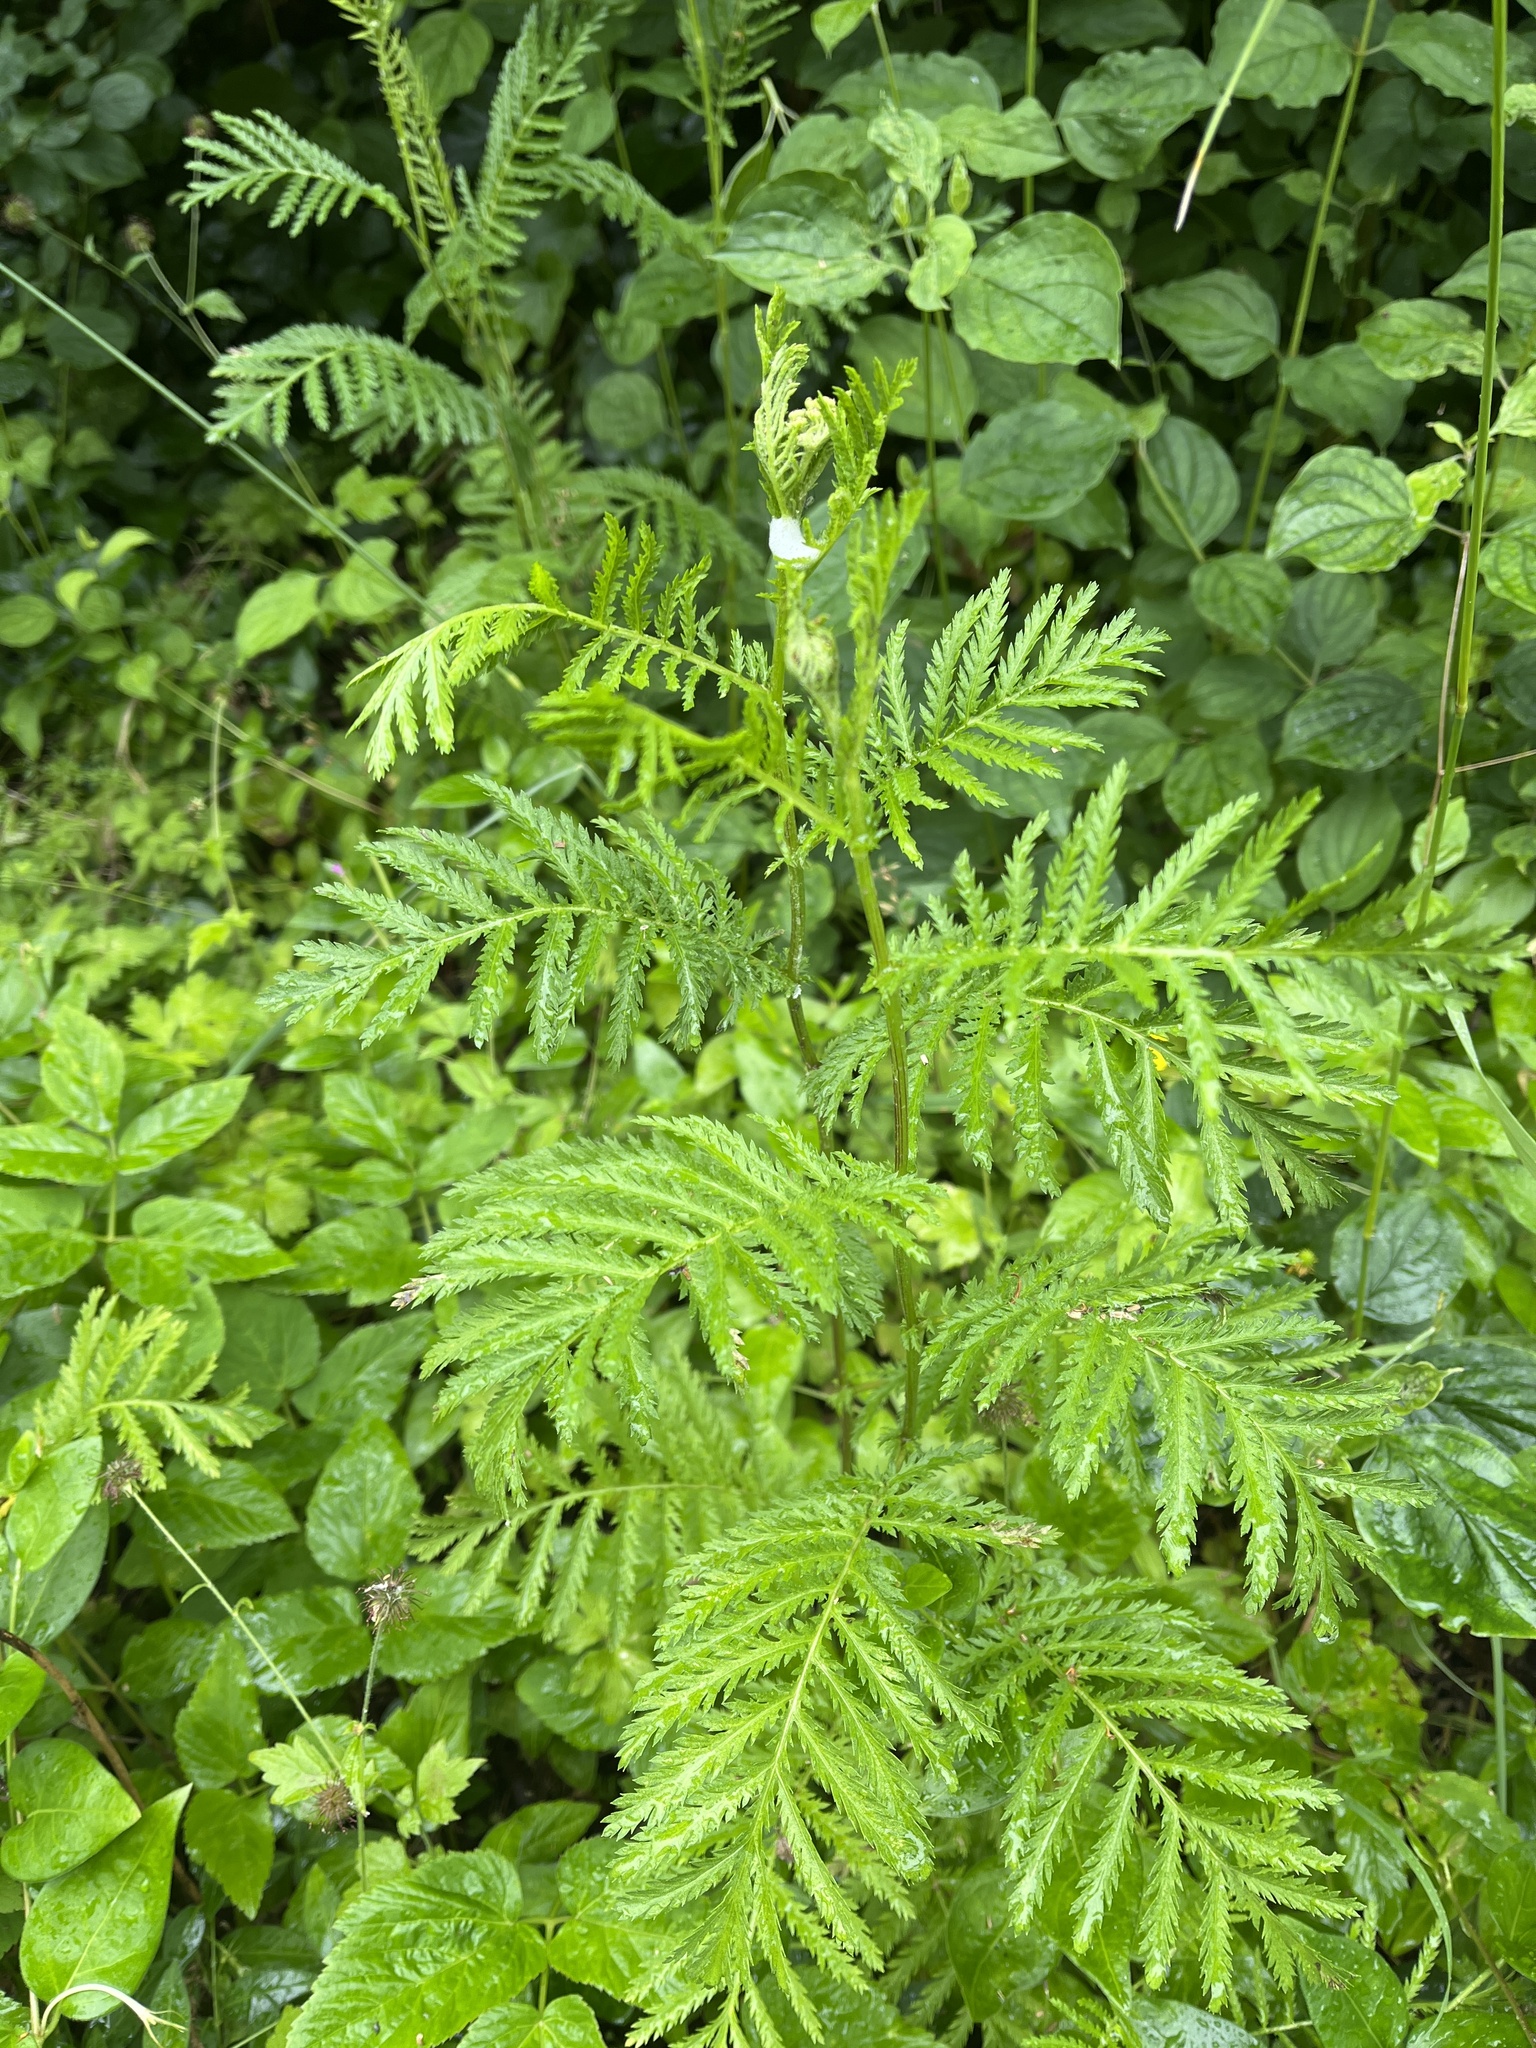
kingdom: Plantae
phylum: Tracheophyta
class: Magnoliopsida
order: Asterales
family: Asteraceae
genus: Tanacetum
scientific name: Tanacetum vulgare
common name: Common tansy
